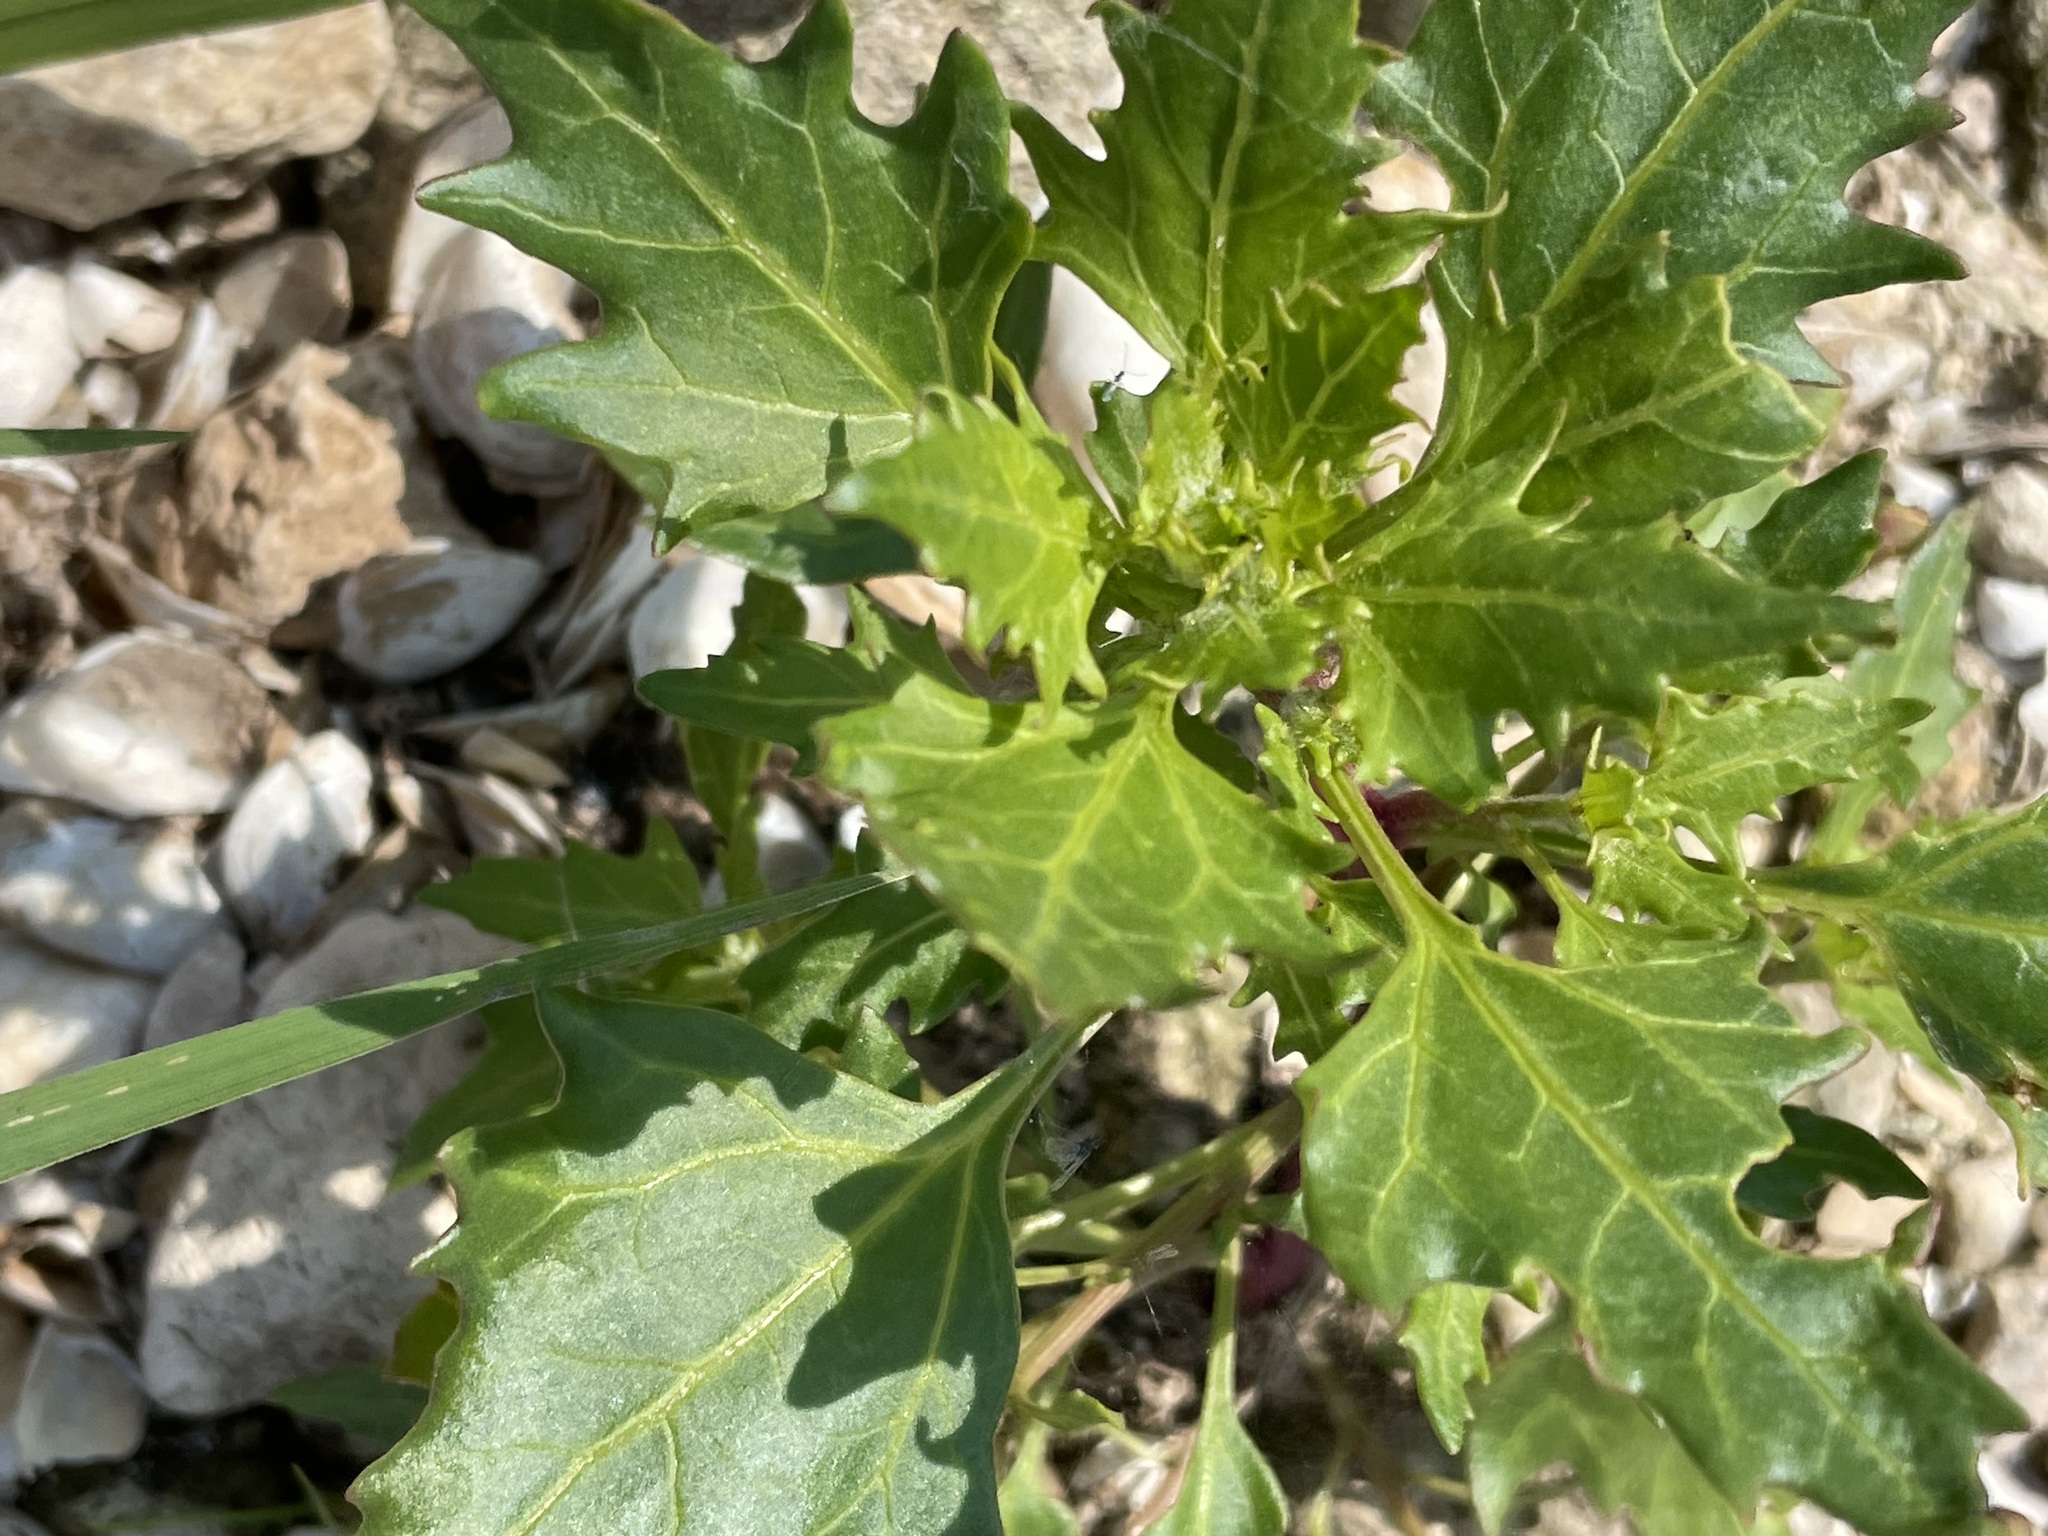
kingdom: Plantae
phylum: Tracheophyta
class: Magnoliopsida
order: Caryophyllales
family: Amaranthaceae
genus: Oxybasis
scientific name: Oxybasis rubra
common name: Red goosefoot
